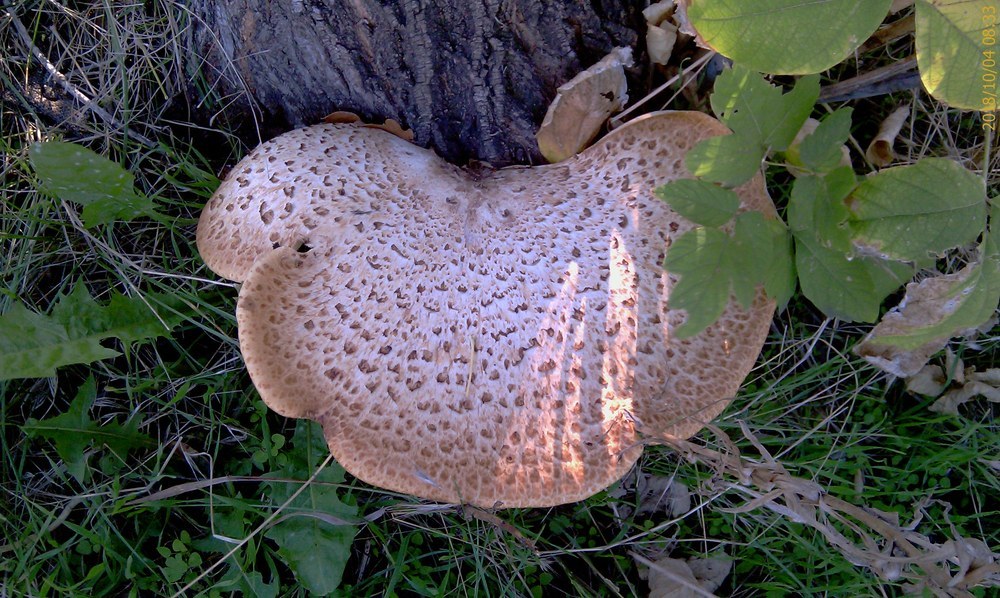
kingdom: Fungi
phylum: Basidiomycota
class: Agaricomycetes
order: Polyporales
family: Polyporaceae
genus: Cerioporus
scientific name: Cerioporus squamosus
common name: Dryad's saddle
